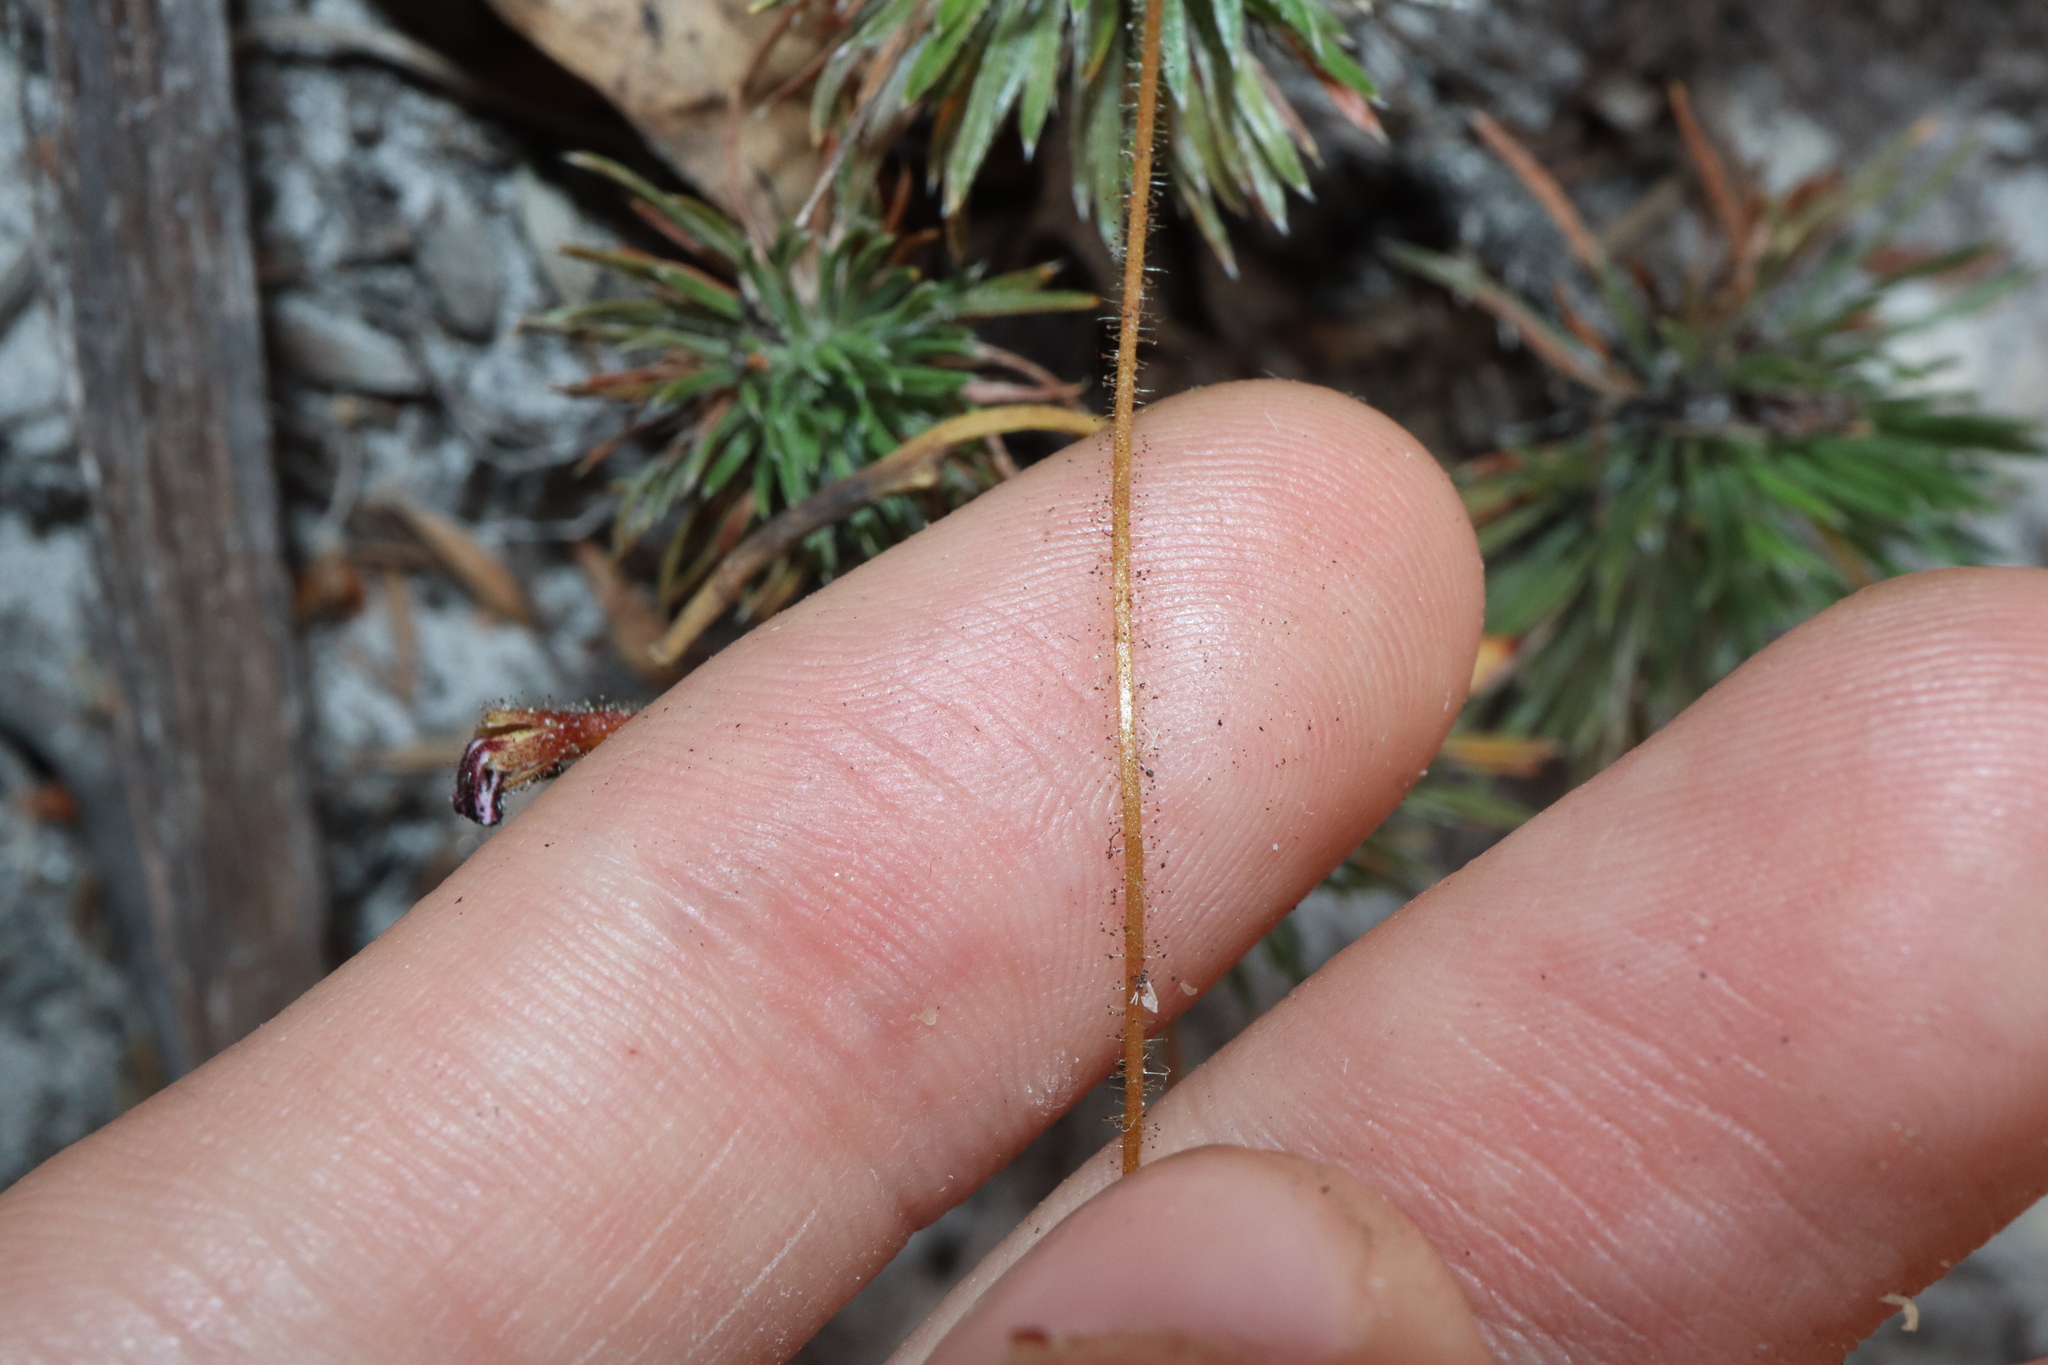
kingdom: Plantae
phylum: Tracheophyta
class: Magnoliopsida
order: Asterales
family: Stylidiaceae
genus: Stylidium
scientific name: Stylidium spinulosum
